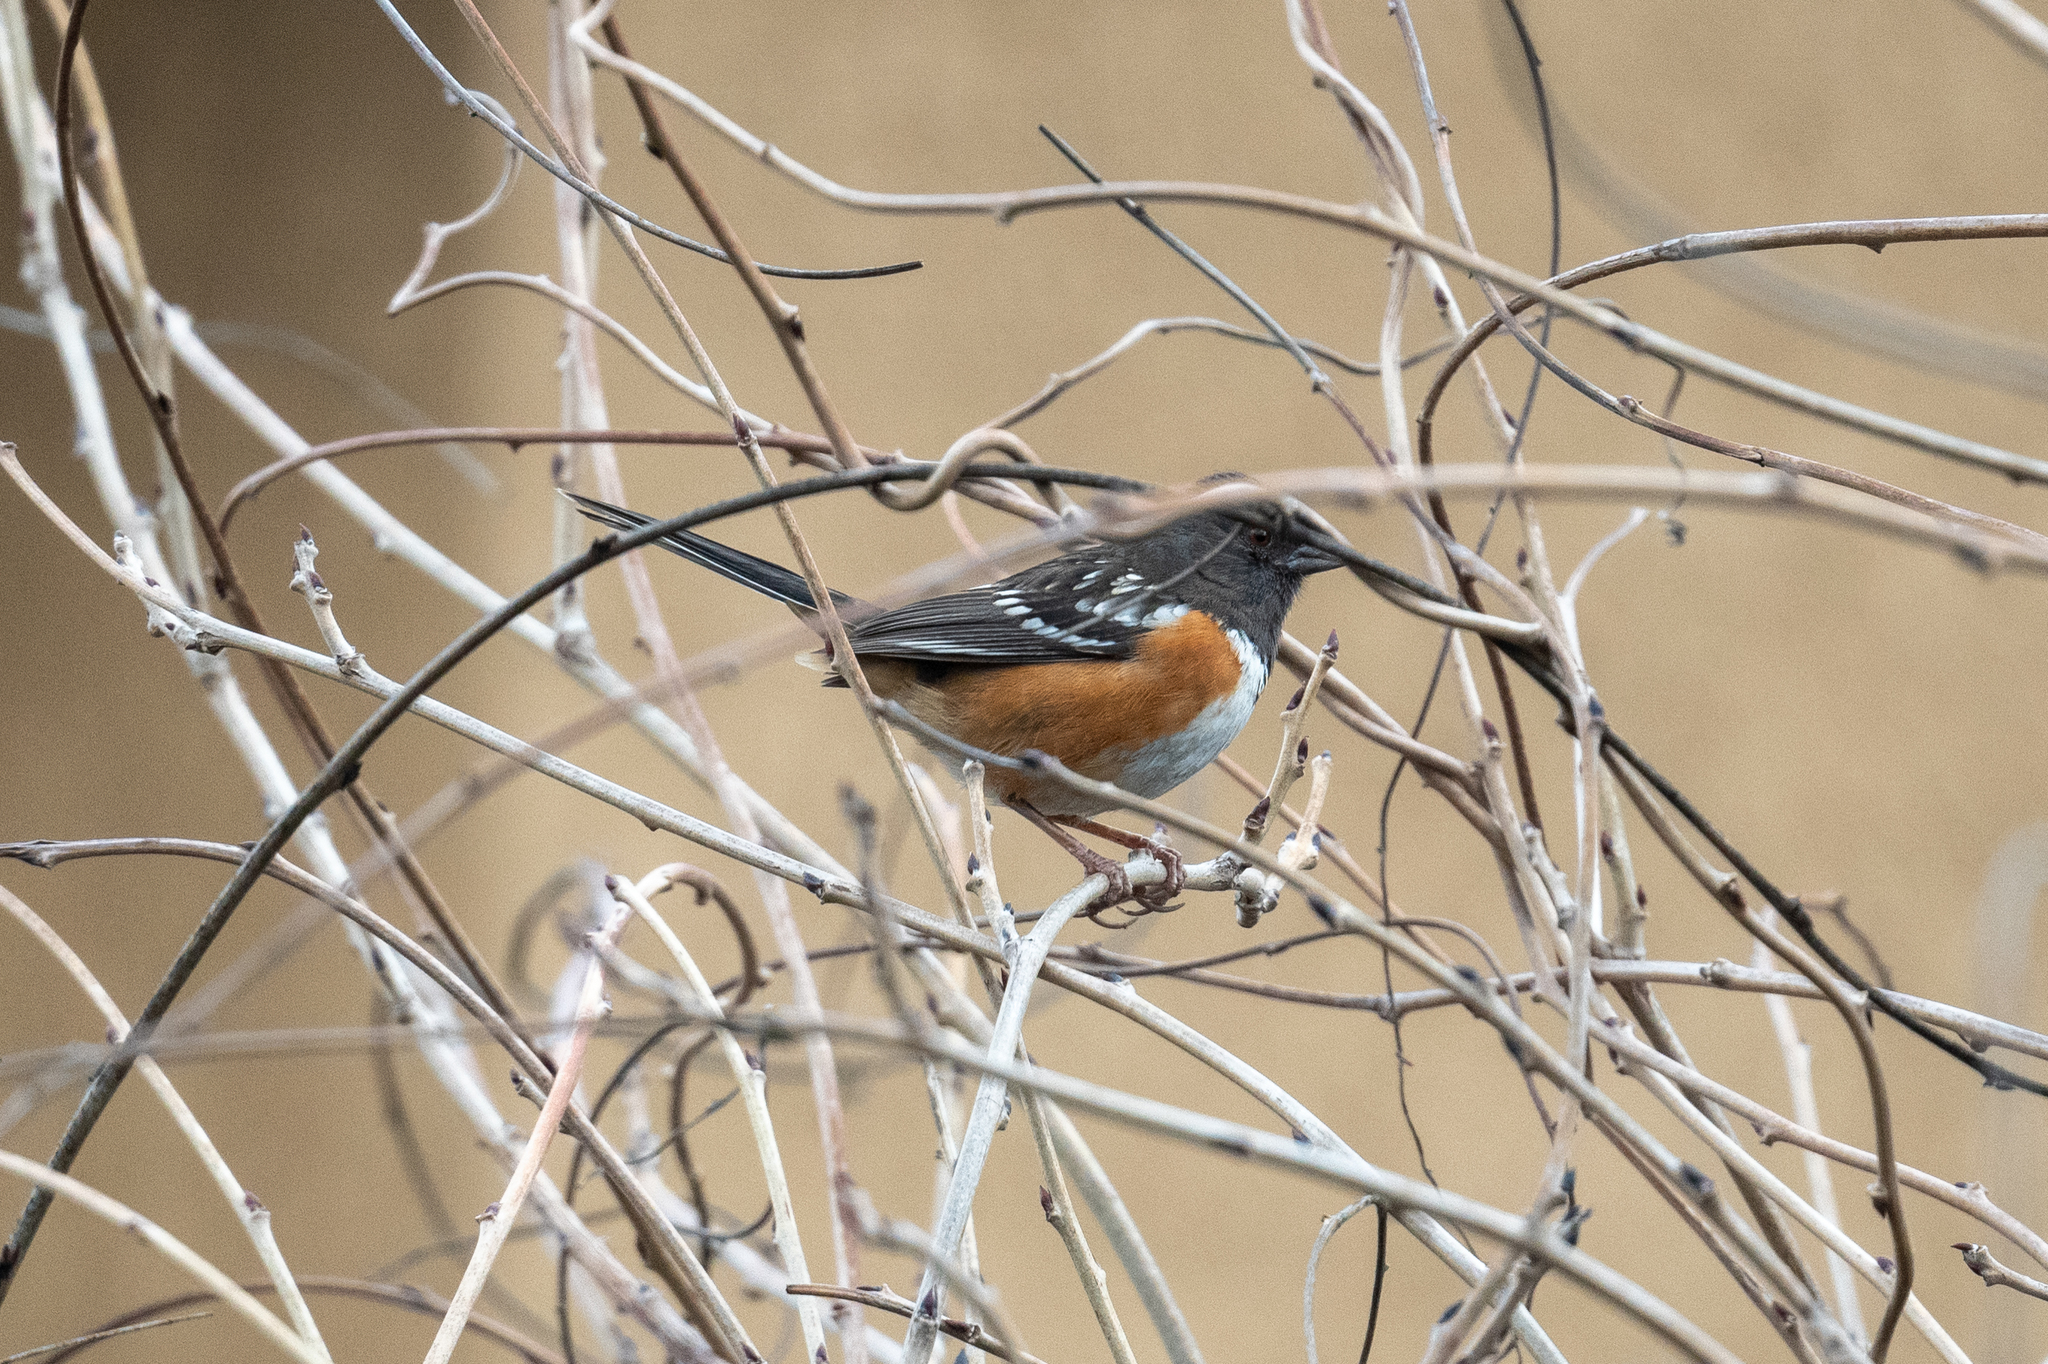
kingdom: Animalia
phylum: Chordata
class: Aves
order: Passeriformes
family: Passerellidae
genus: Pipilo
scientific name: Pipilo maculatus
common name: Spotted towhee
